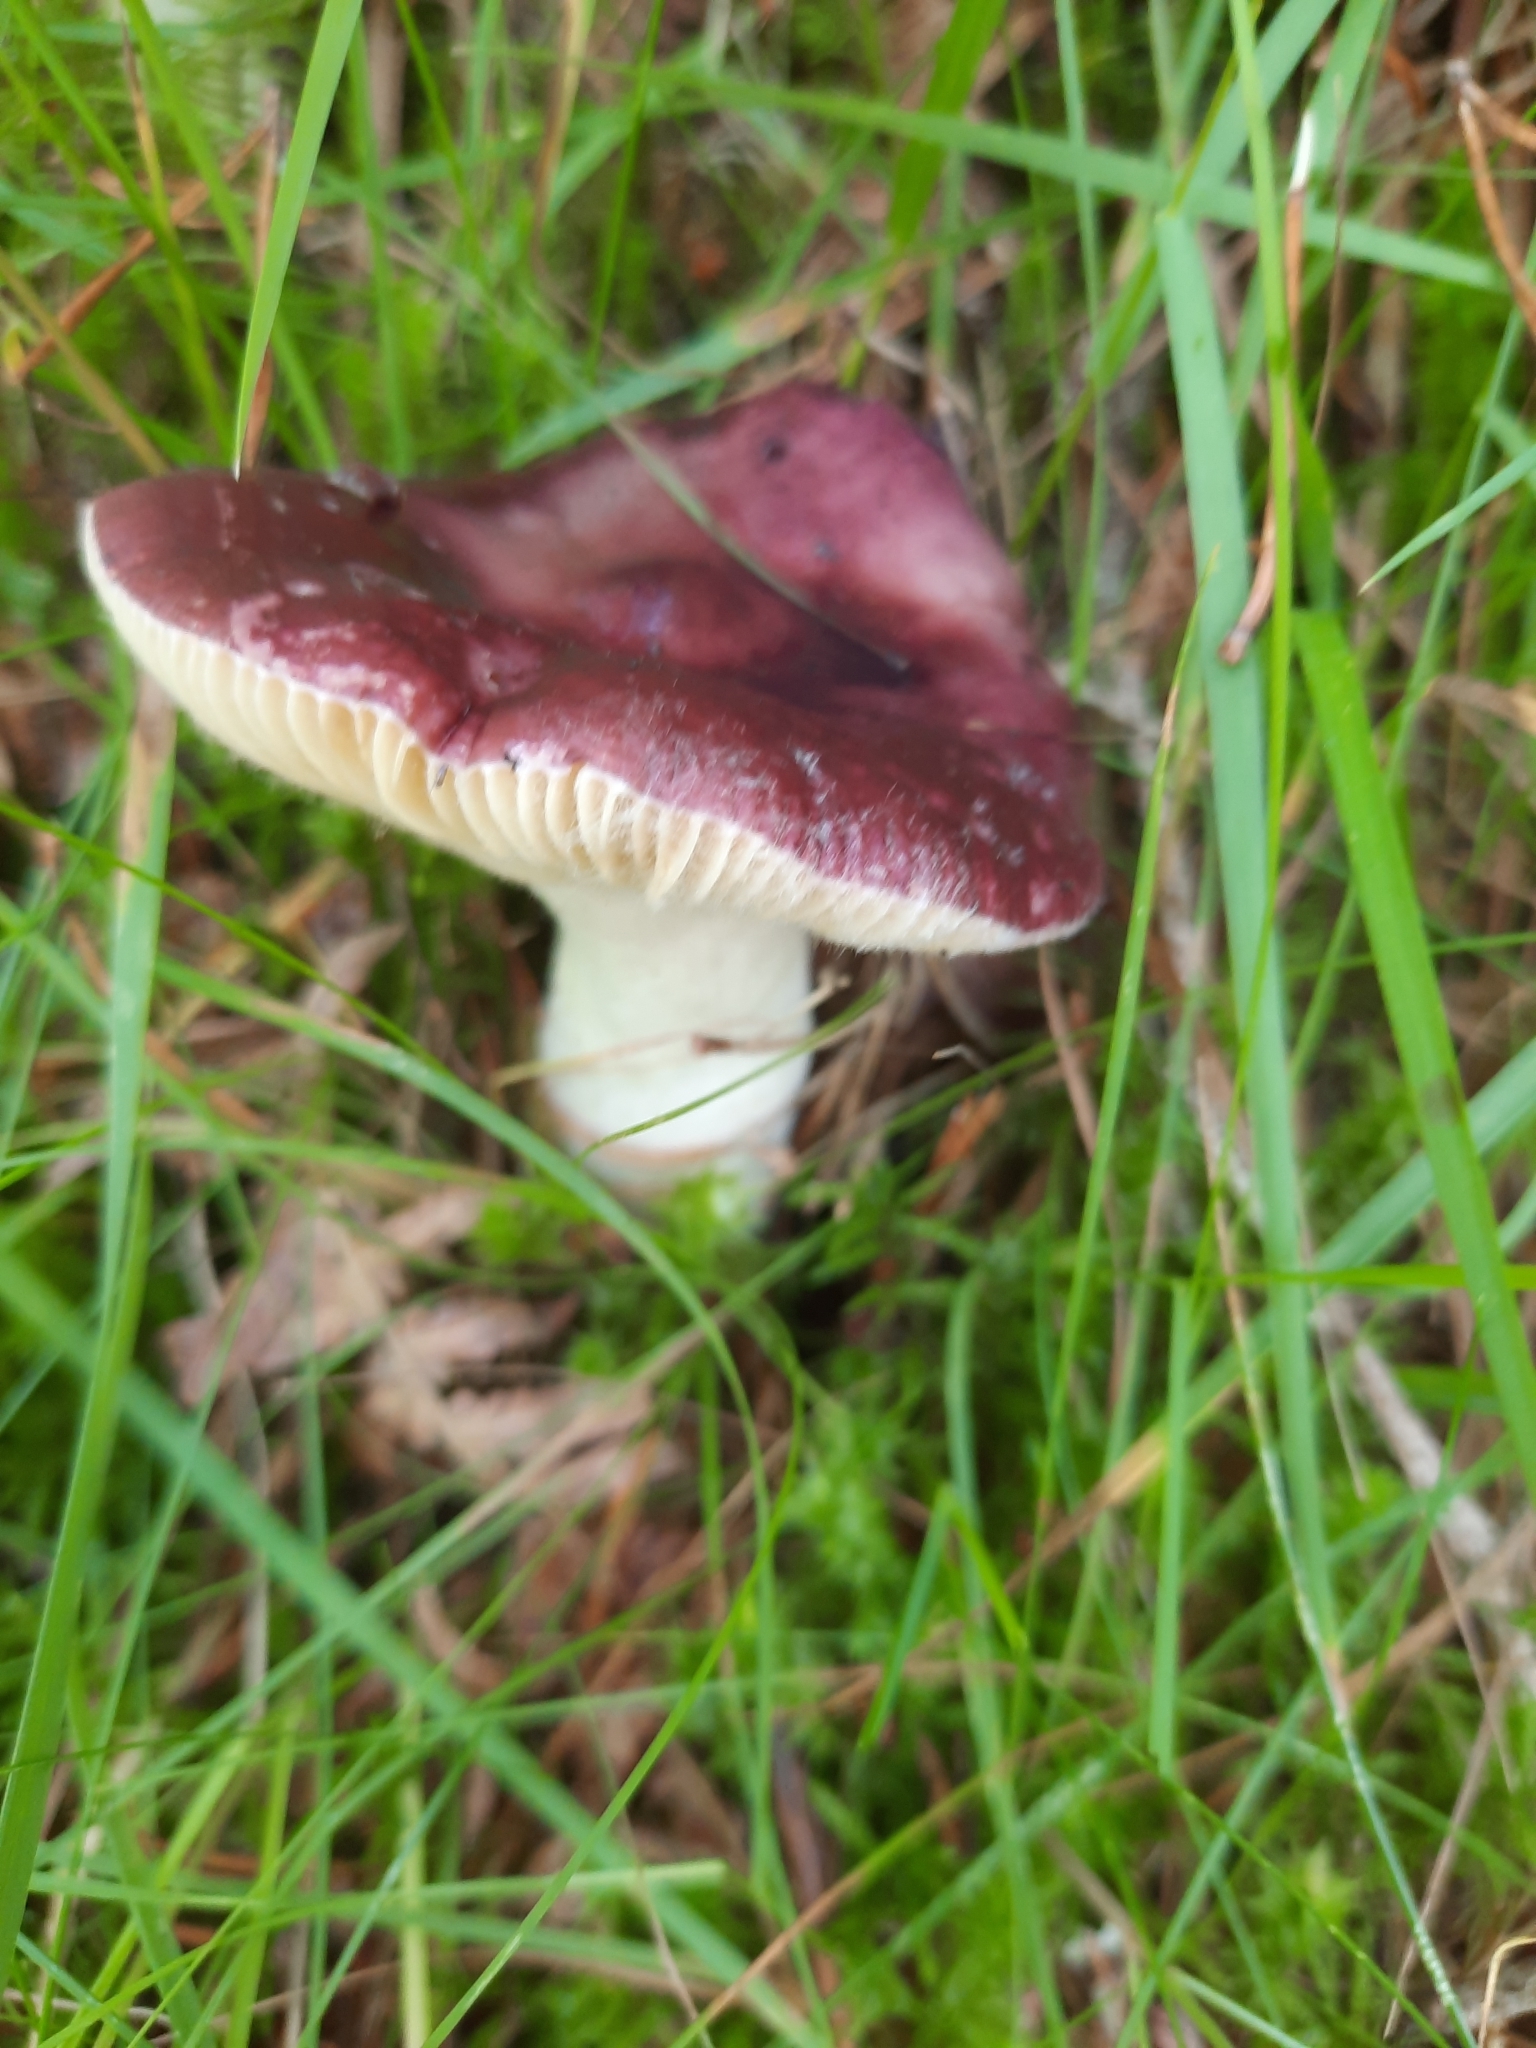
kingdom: Fungi
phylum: Basidiomycota
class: Agaricomycetes
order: Russulales
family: Russulaceae
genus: Russula
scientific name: Russula caerulea
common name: Humpback brittlegill
